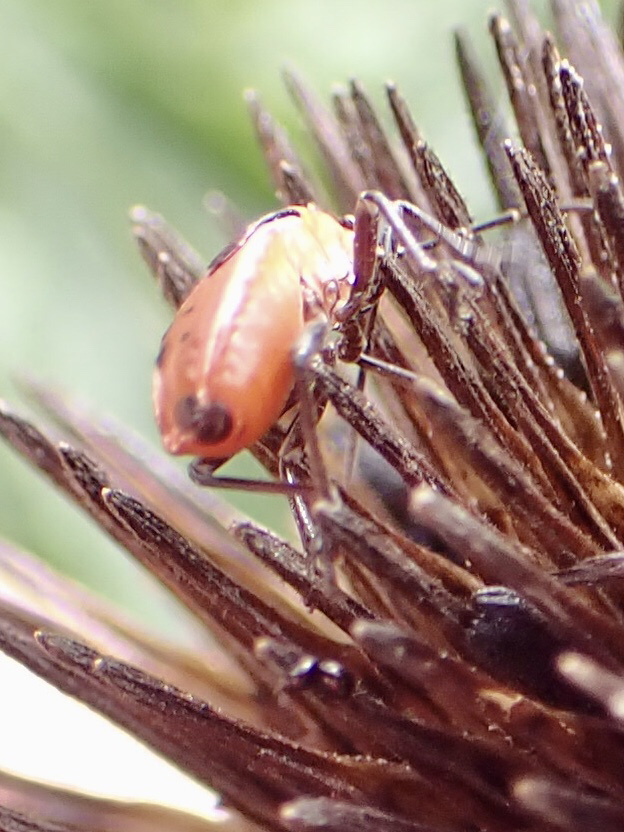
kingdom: Animalia
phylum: Arthropoda
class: Insecta
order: Hemiptera
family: Lygaeidae
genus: Lygaeus
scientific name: Lygaeus kalmii
